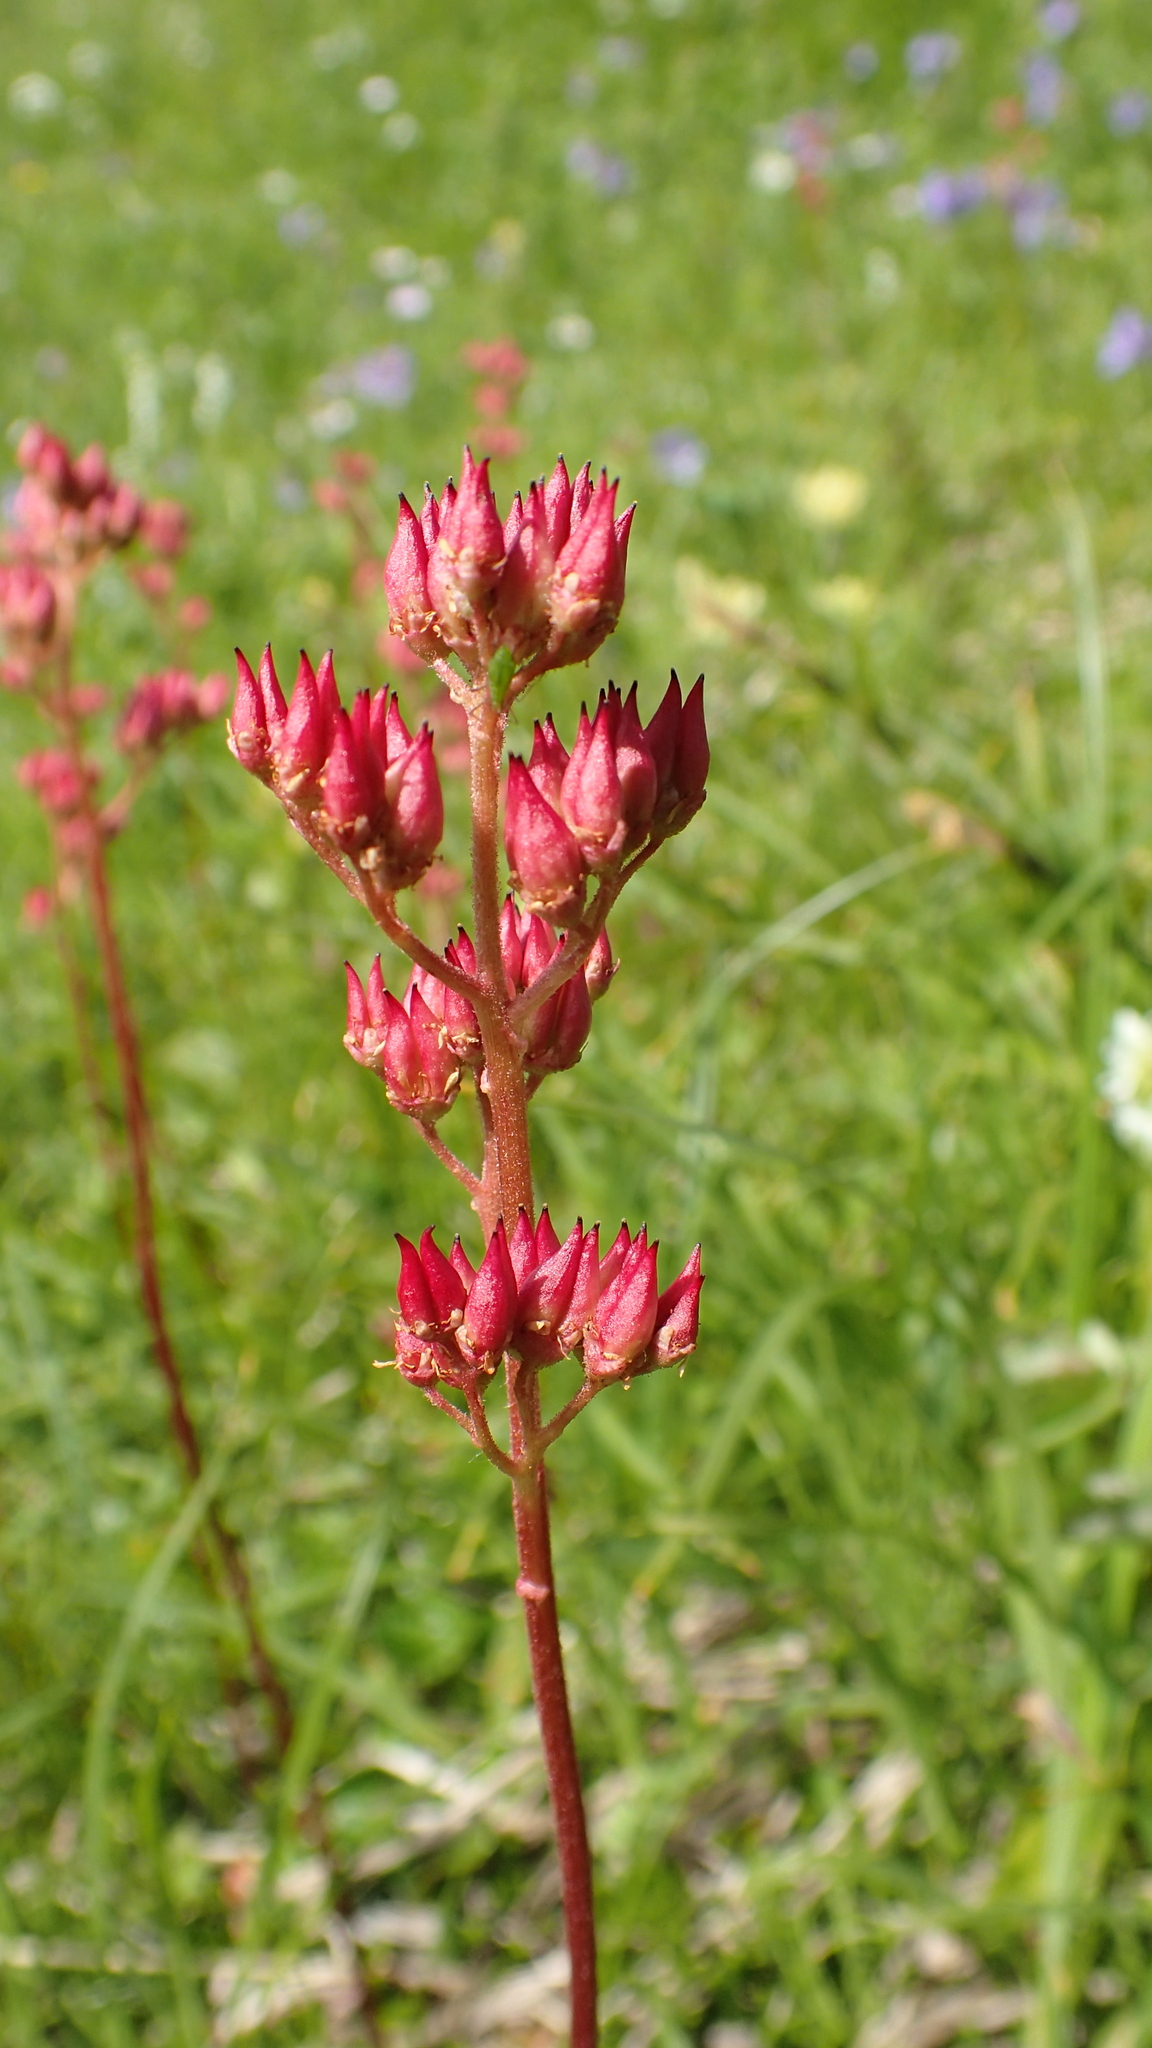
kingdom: Plantae
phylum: Tracheophyta
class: Magnoliopsida
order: Saxifragales
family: Saxifragaceae
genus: Leptarrhena
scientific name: Leptarrhena pyrolifolia
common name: Leatherleaf-saxifrage
